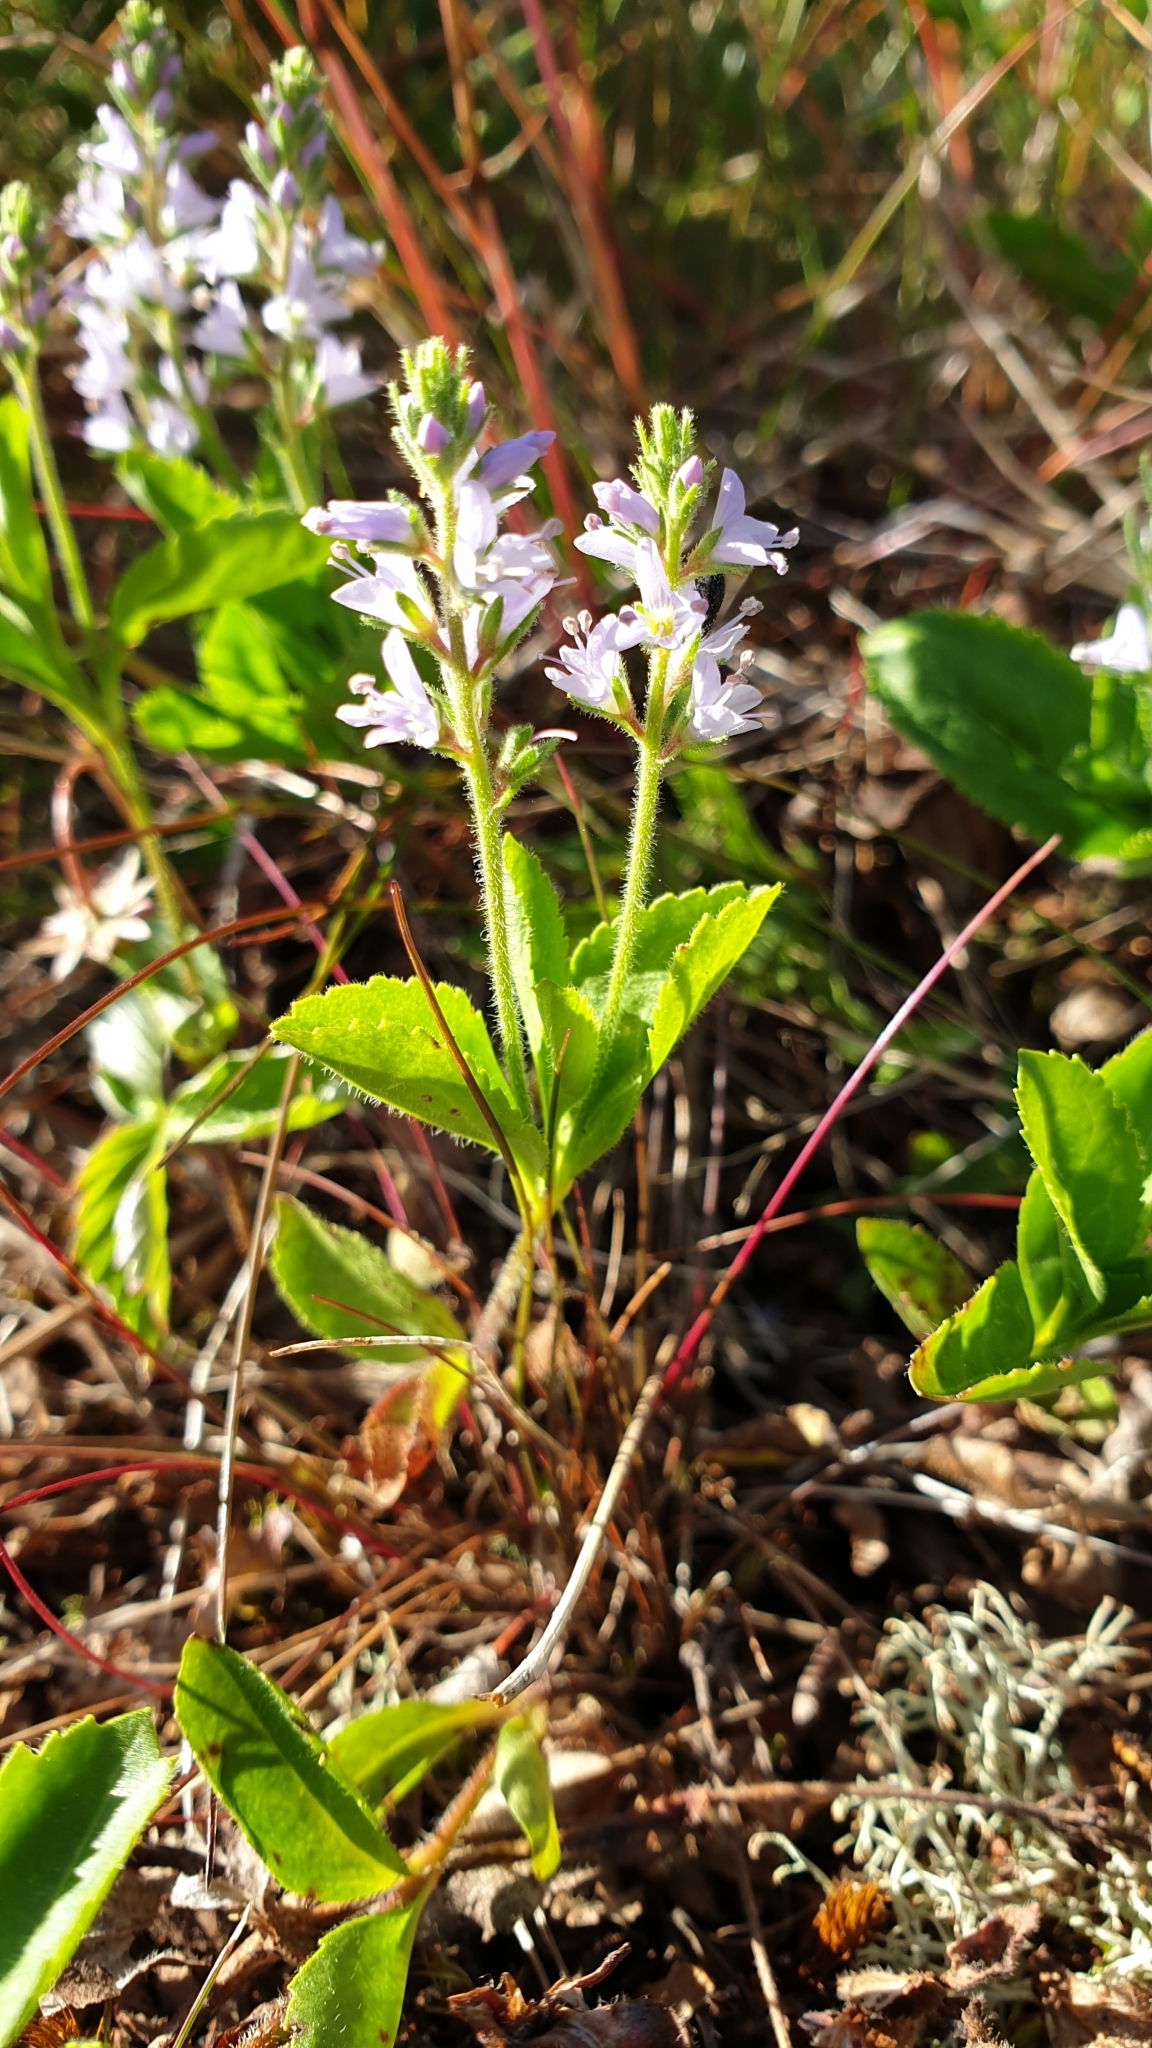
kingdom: Plantae
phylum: Tracheophyta
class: Magnoliopsida
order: Lamiales
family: Plantaginaceae
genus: Veronica
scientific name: Veronica officinalis
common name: Common speedwell
